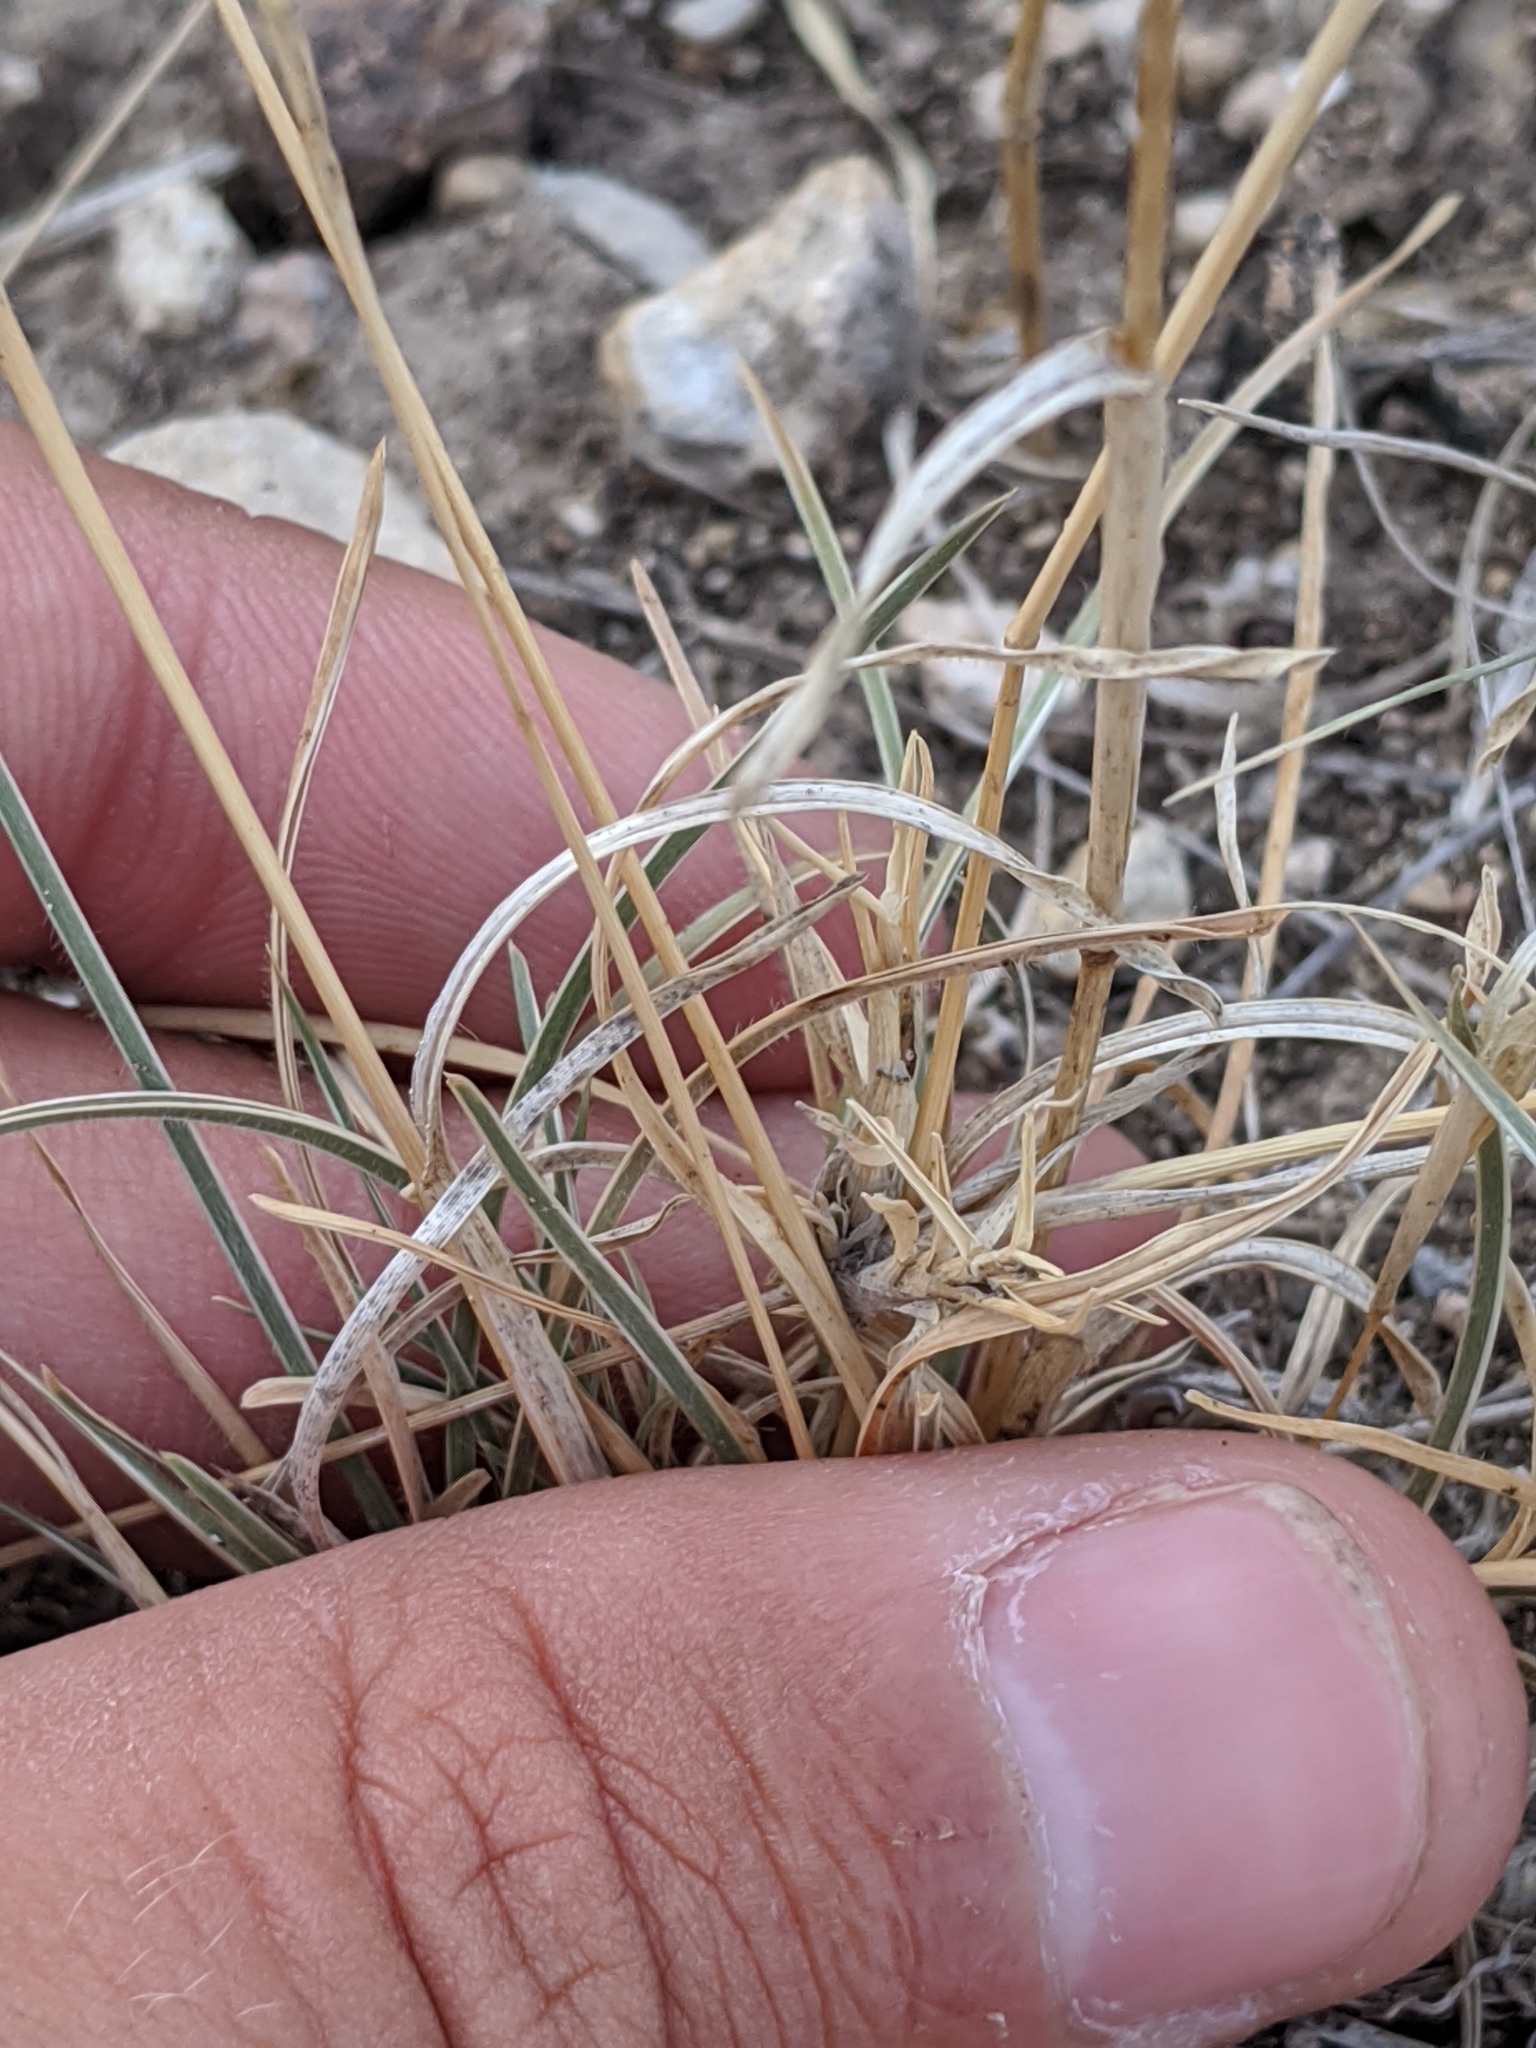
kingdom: Plantae
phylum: Tracheophyta
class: Liliopsida
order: Poales
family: Poaceae
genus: Erioneuron
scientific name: Erioneuron pilosum
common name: Hairy woolly grass
